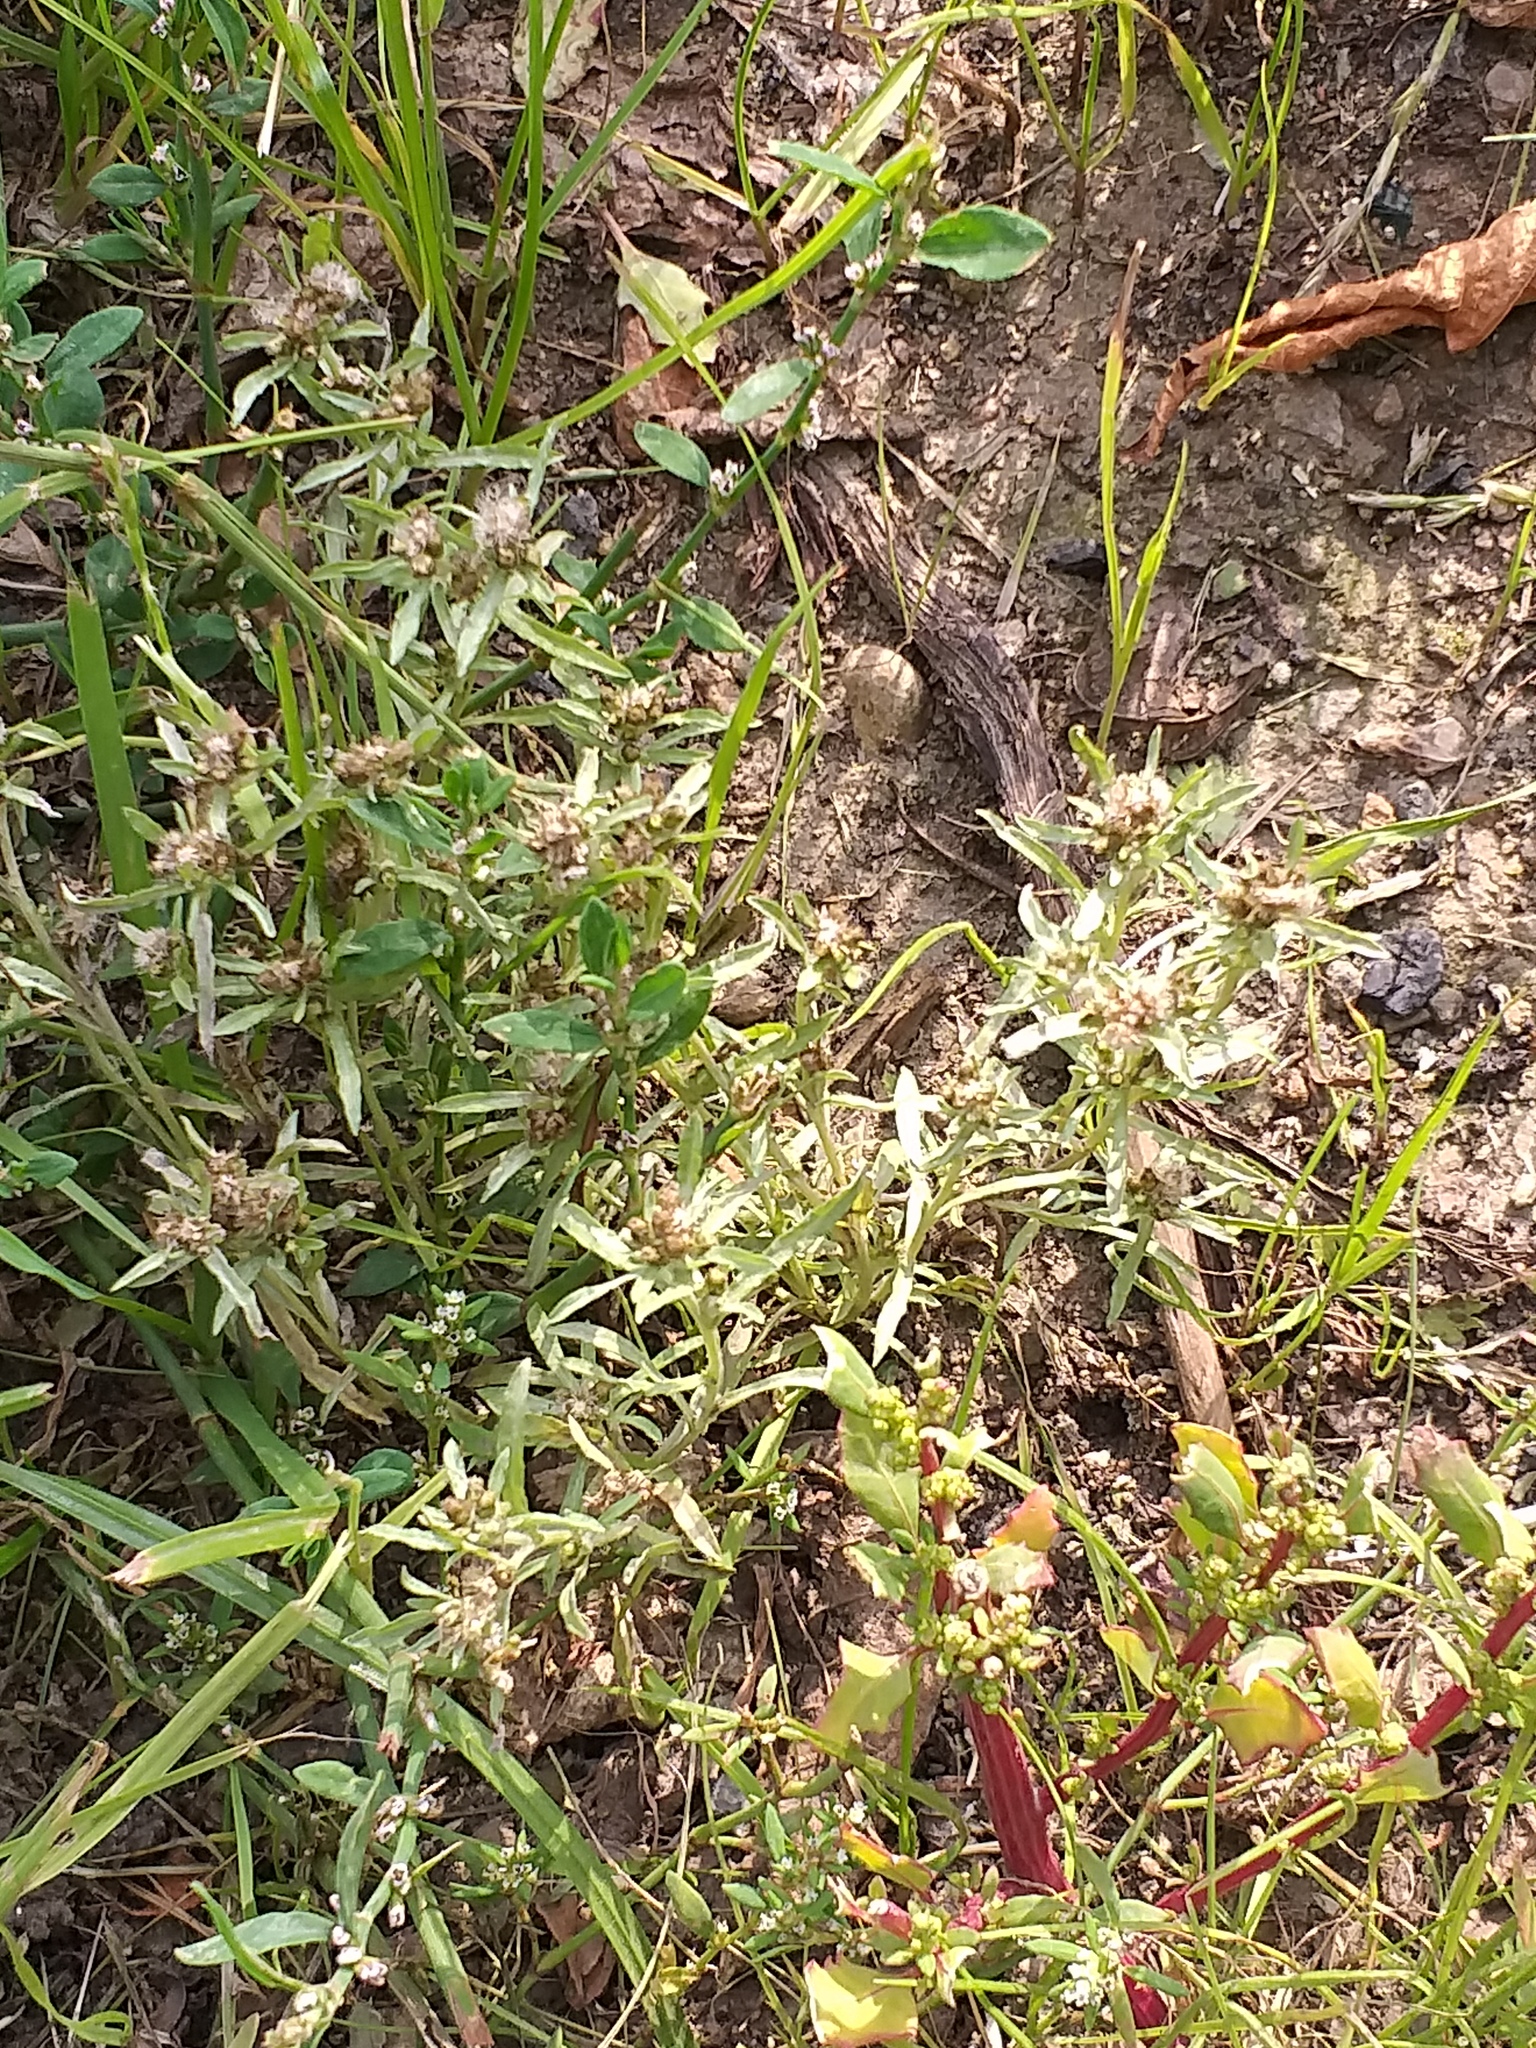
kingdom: Plantae
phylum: Tracheophyta
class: Magnoliopsida
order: Asterales
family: Asteraceae
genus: Gnaphalium
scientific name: Gnaphalium uliginosum
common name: Marsh cudweed
